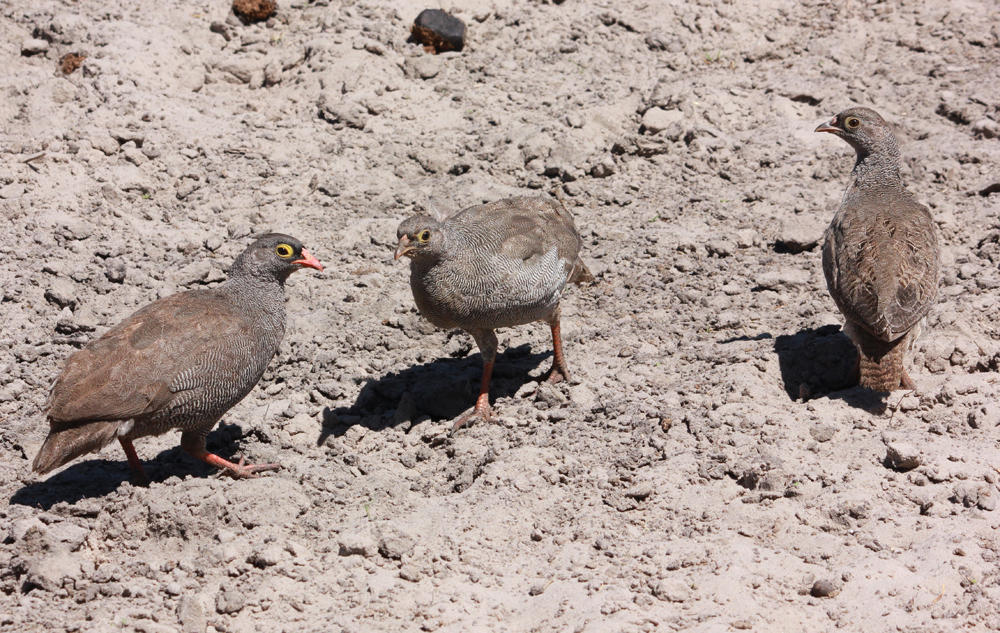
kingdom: Animalia
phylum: Chordata
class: Aves
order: Galliformes
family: Phasianidae
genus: Pternistis
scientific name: Pternistis adspersus
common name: Red-billed spurfowl
